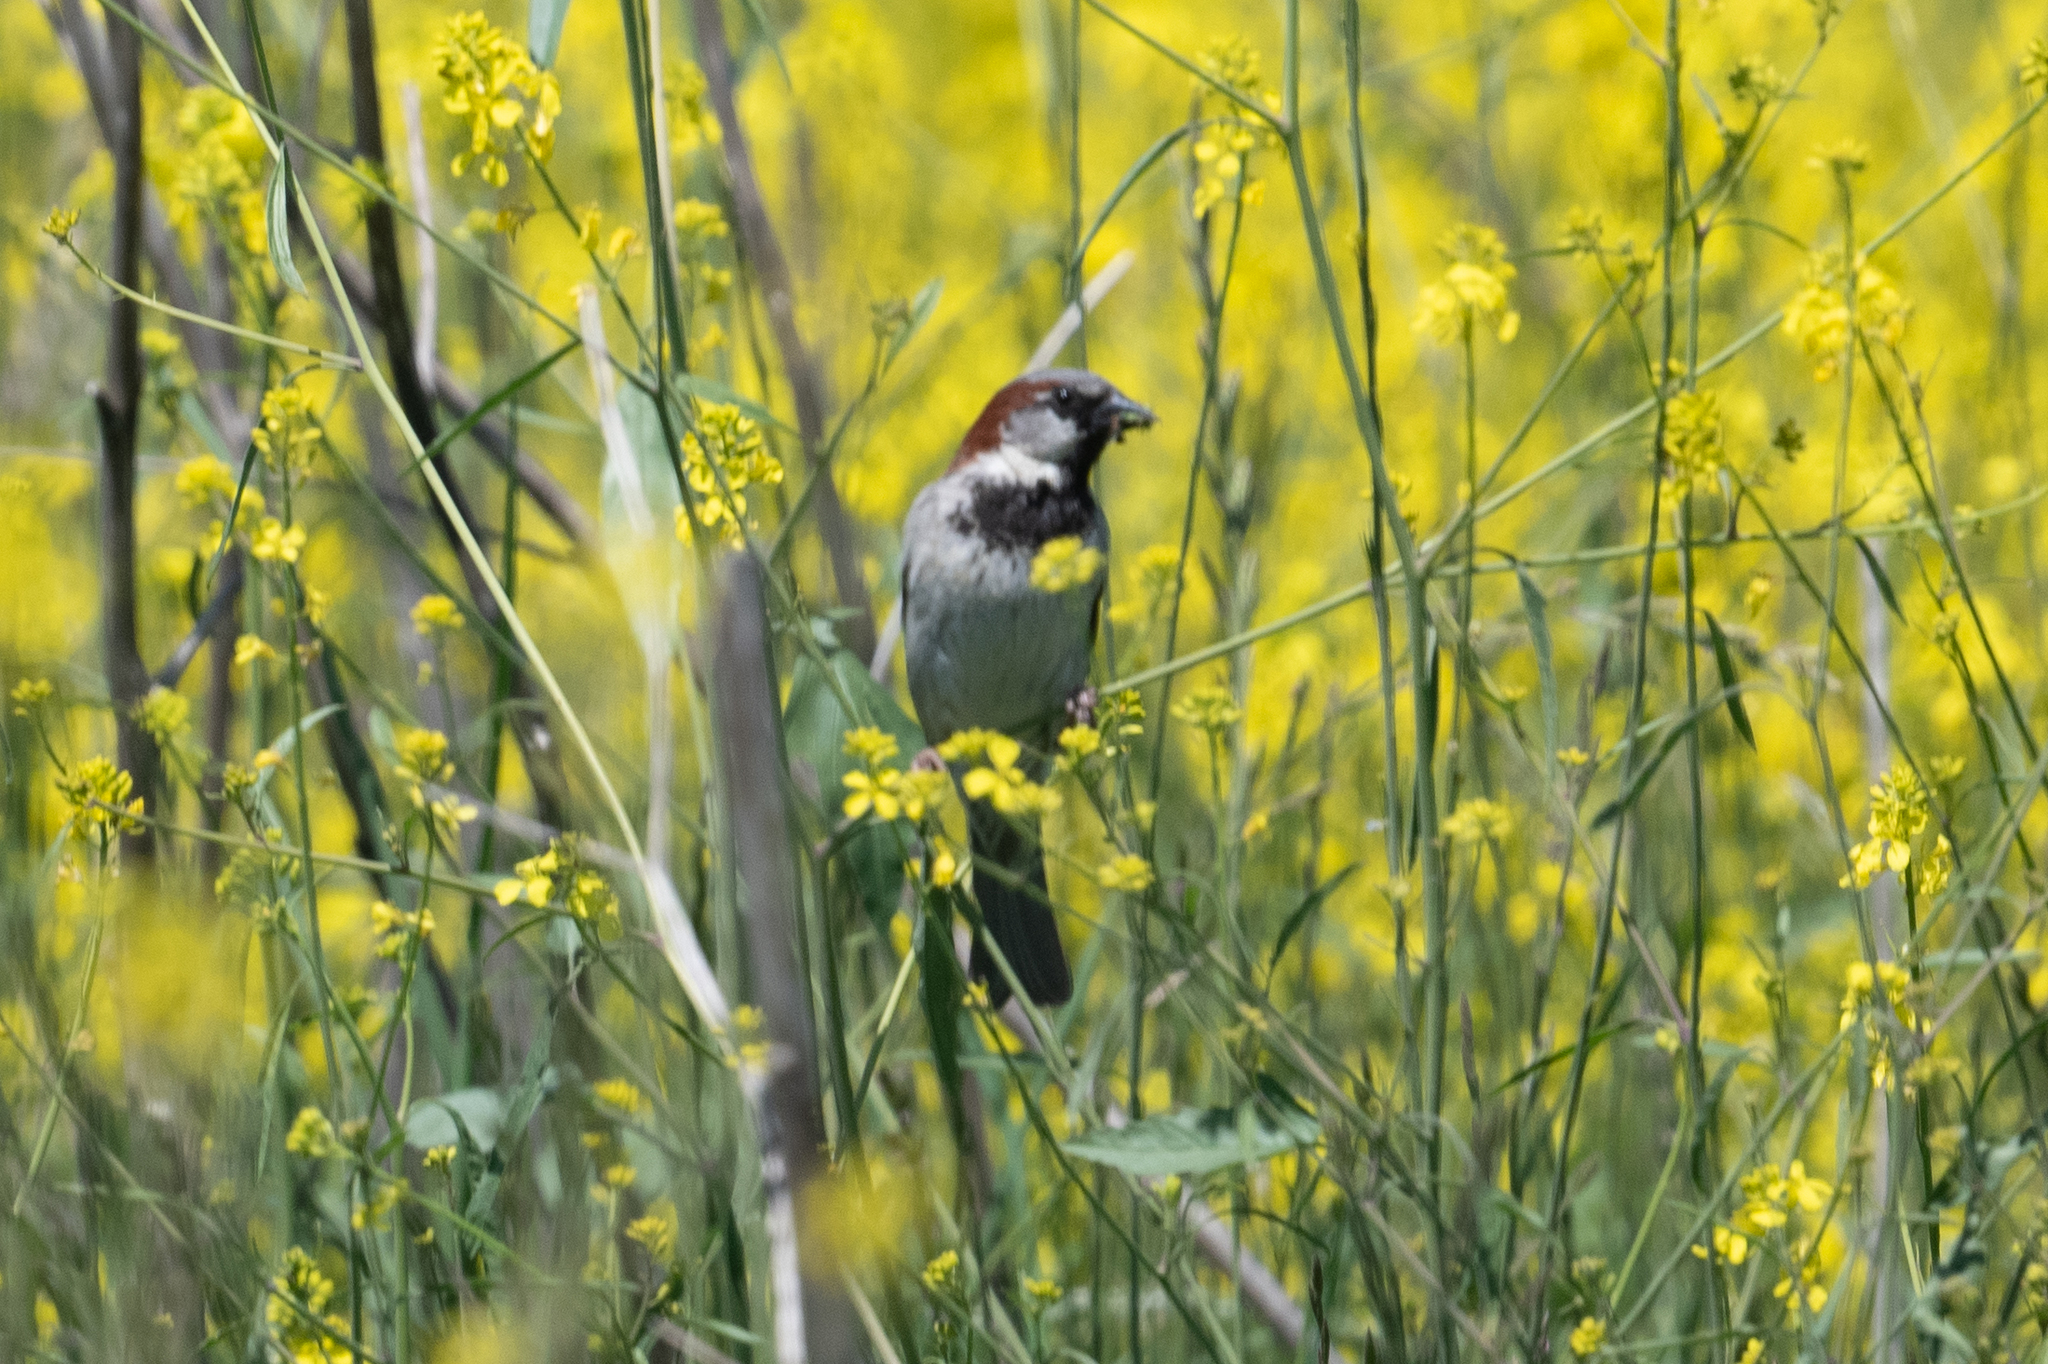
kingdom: Animalia
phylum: Chordata
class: Aves
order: Passeriformes
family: Passeridae
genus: Passer
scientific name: Passer domesticus
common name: House sparrow
